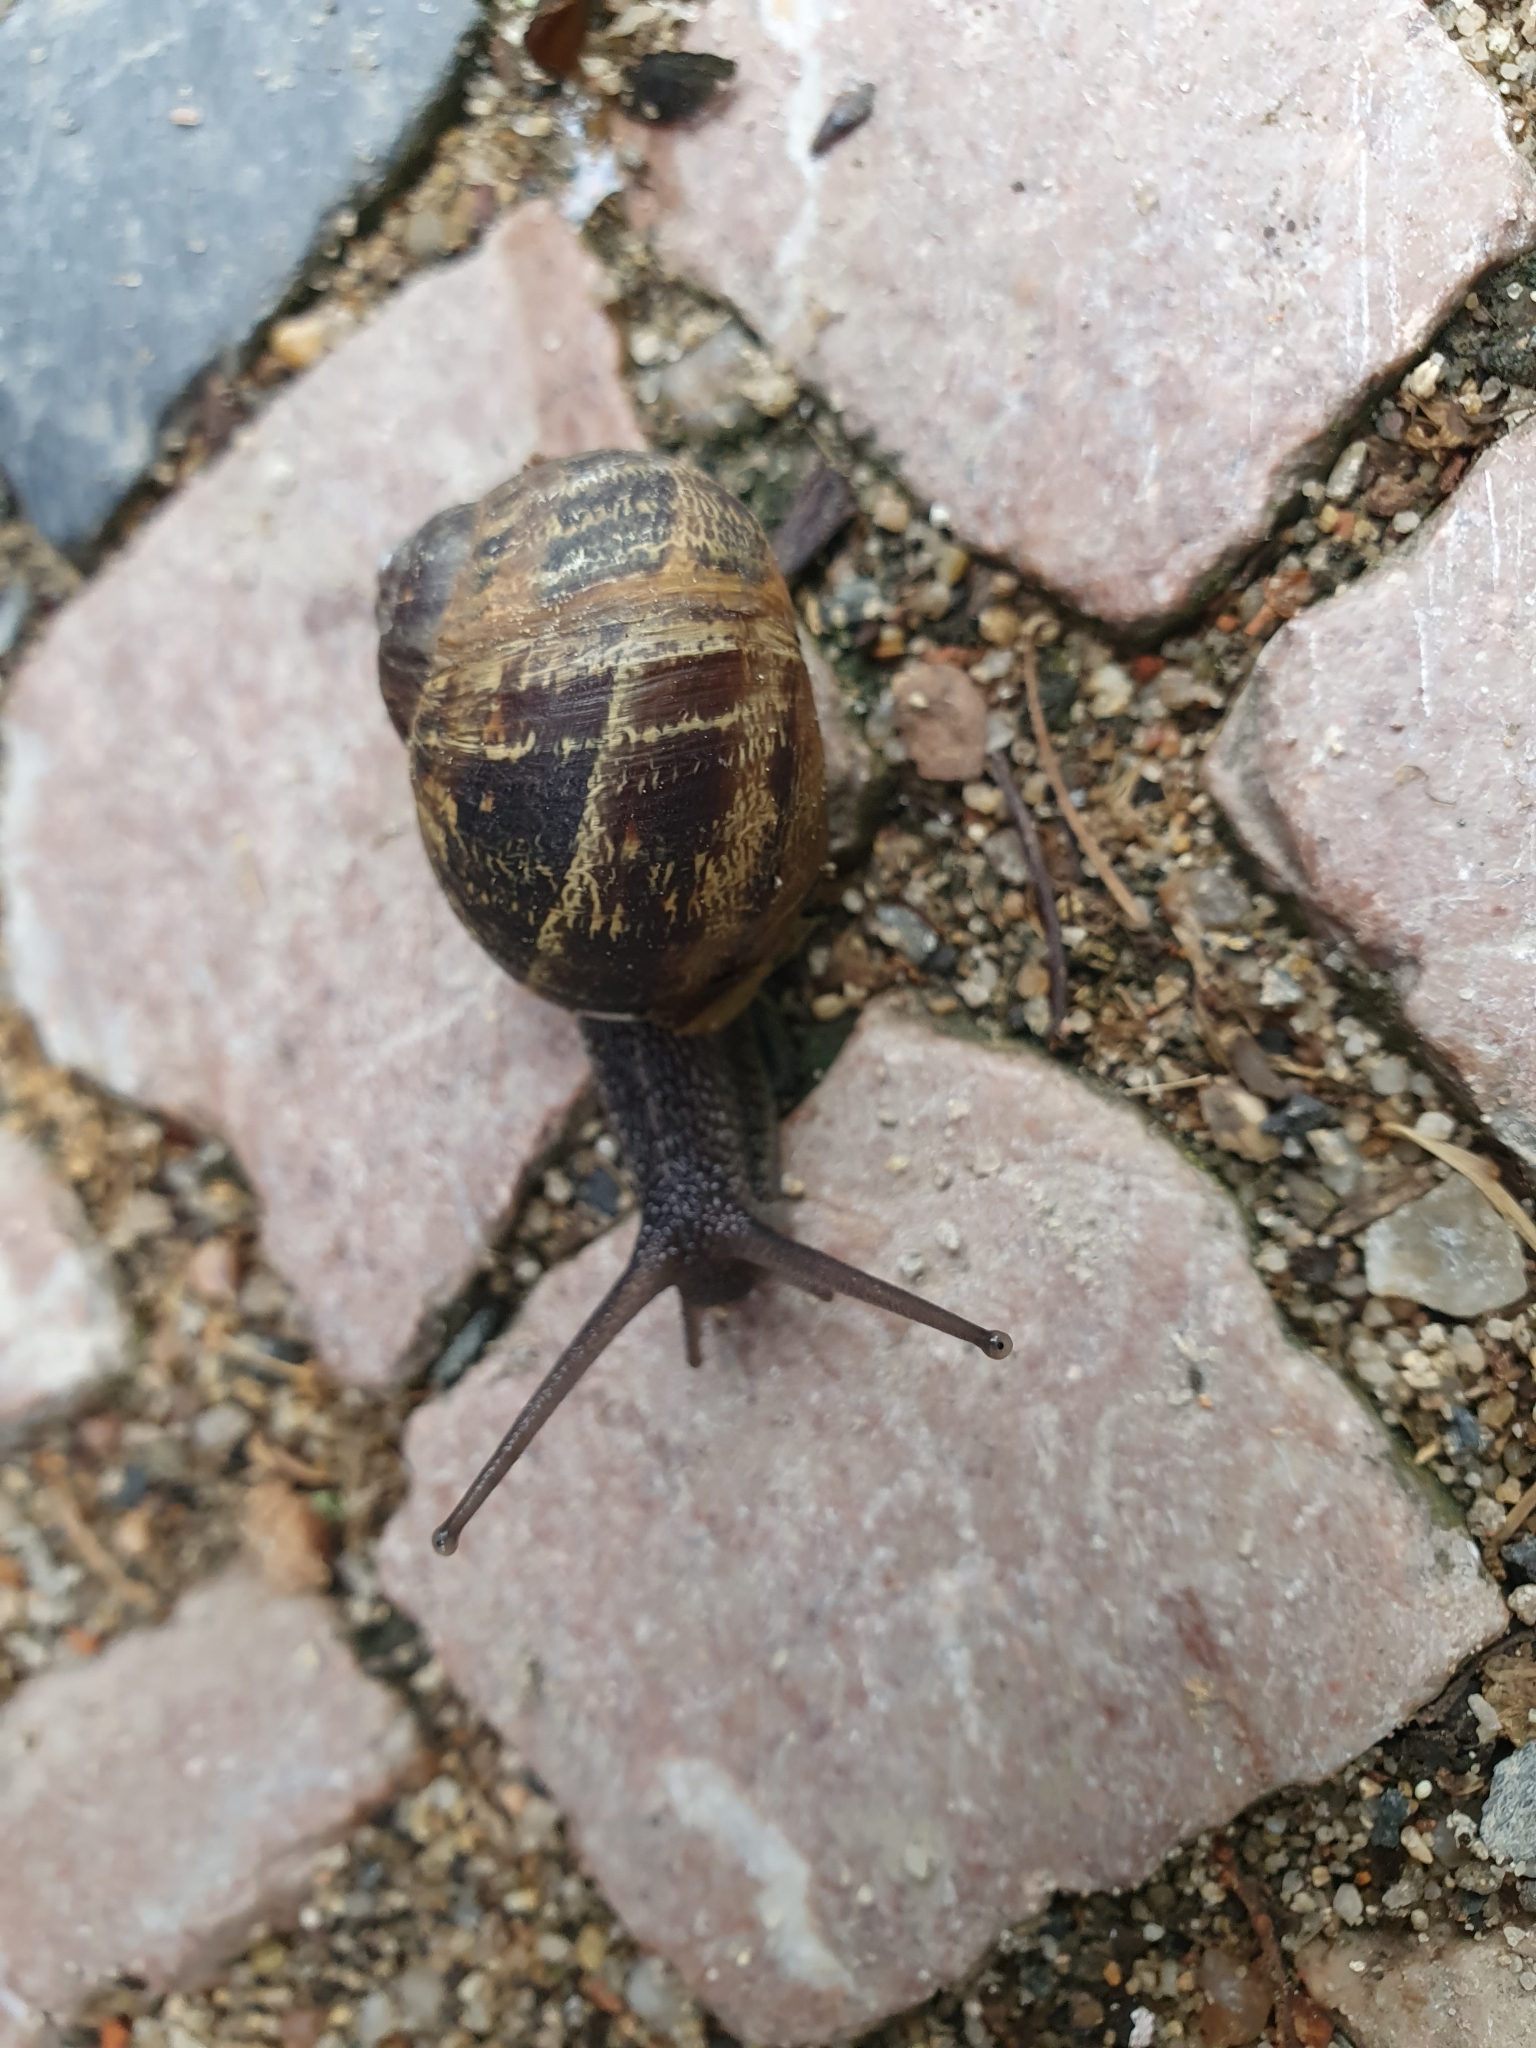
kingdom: Animalia
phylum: Mollusca
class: Gastropoda
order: Stylommatophora
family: Helicidae
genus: Cornu
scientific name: Cornu aspersum
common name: Brown garden snail
